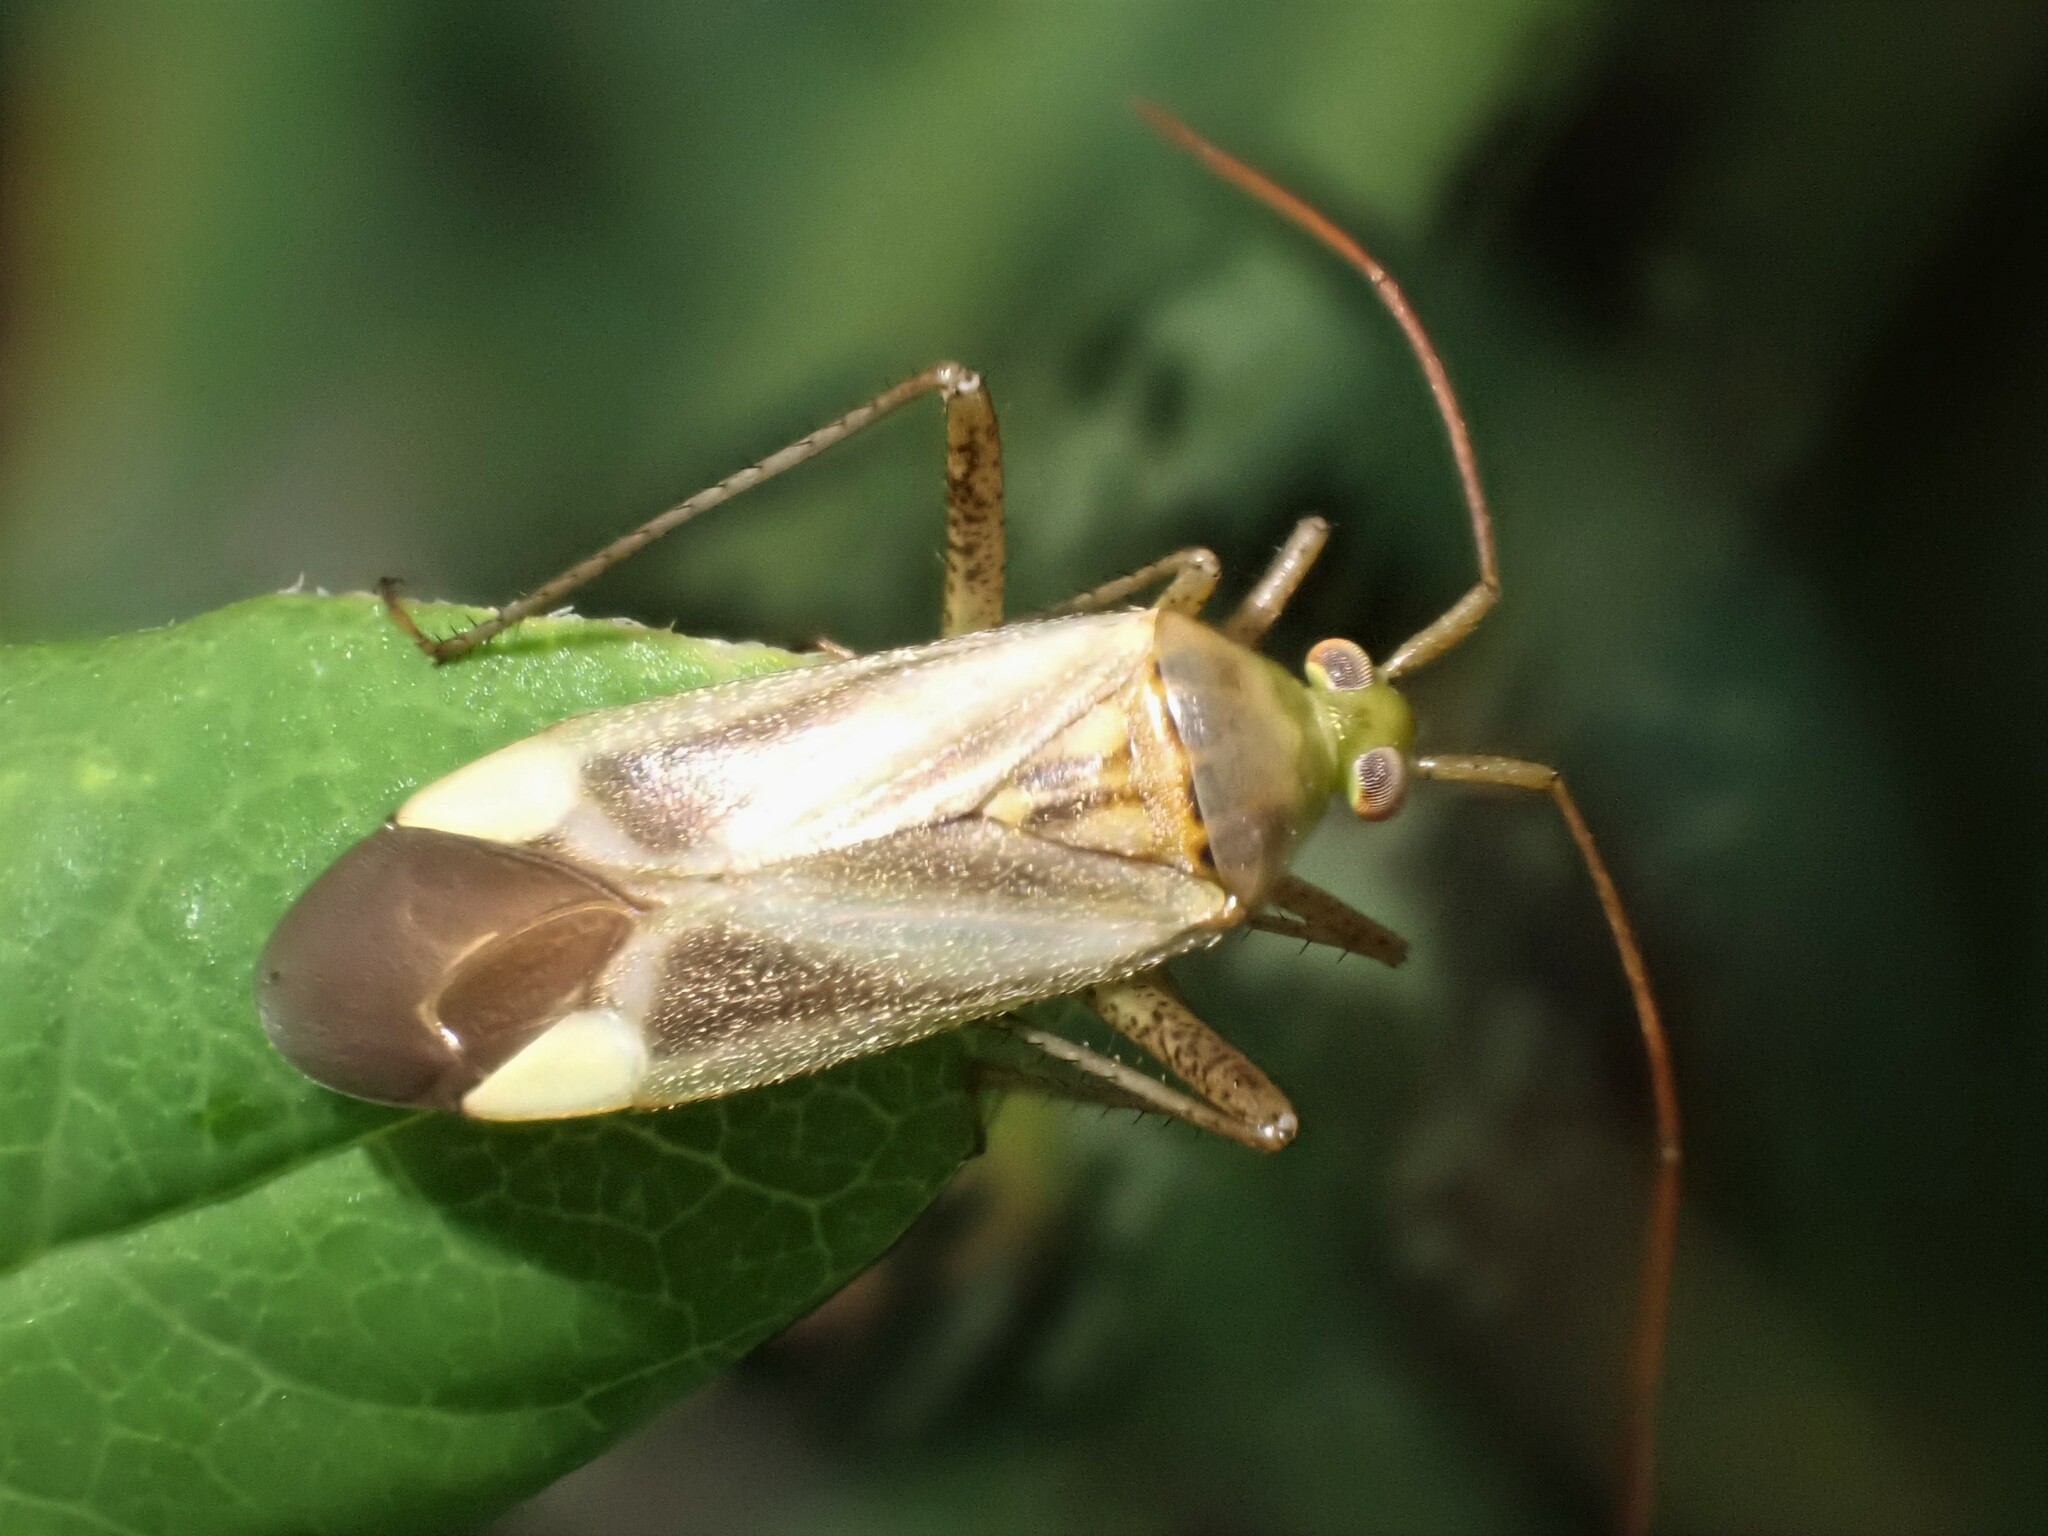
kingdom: Animalia
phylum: Arthropoda
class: Insecta
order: Hemiptera
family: Miridae
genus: Adelphocoris
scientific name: Adelphocoris lineolatus
